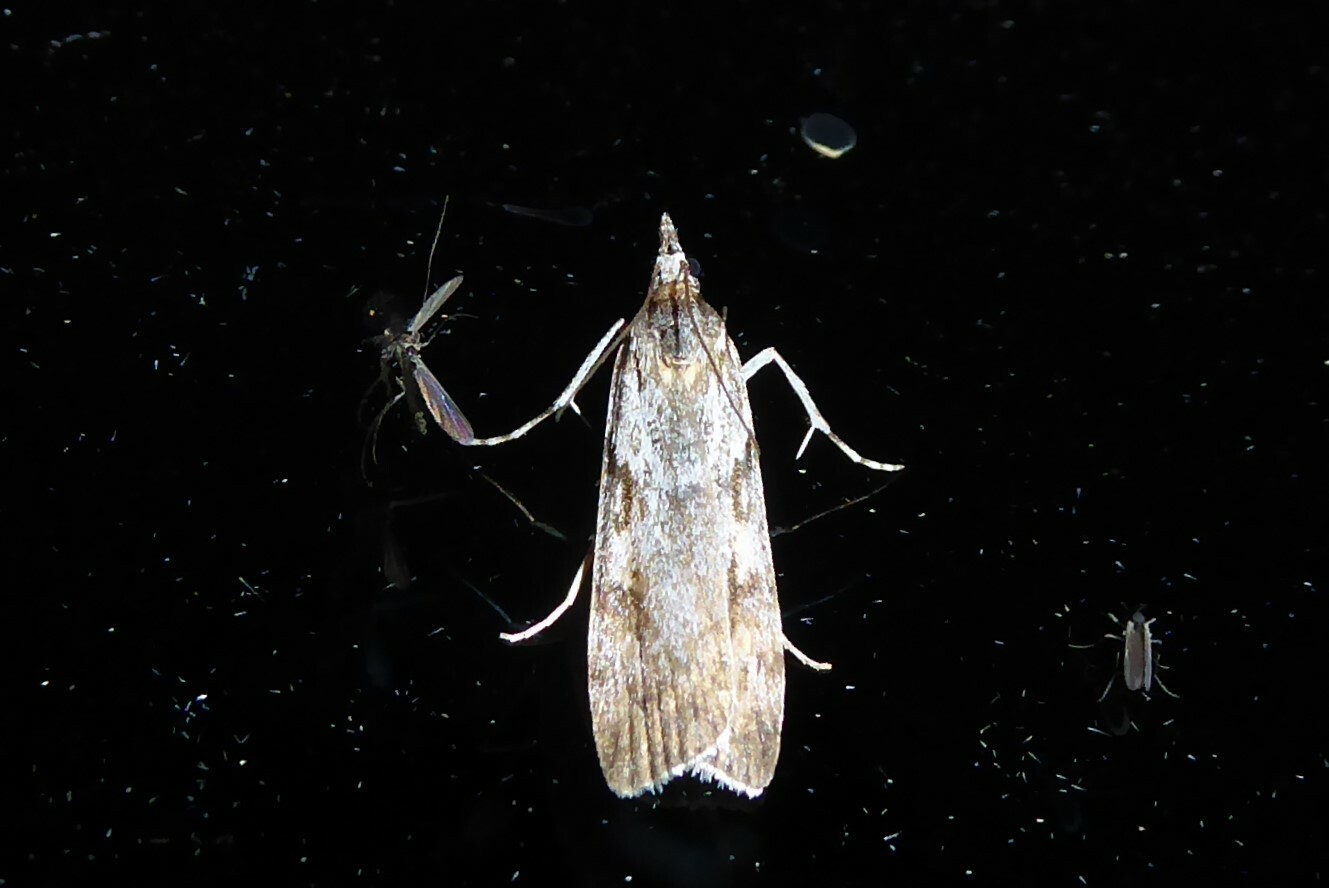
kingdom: Animalia
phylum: Arthropoda
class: Insecta
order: Lepidoptera
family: Crambidae
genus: Scoparia
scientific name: Scoparia halopis
